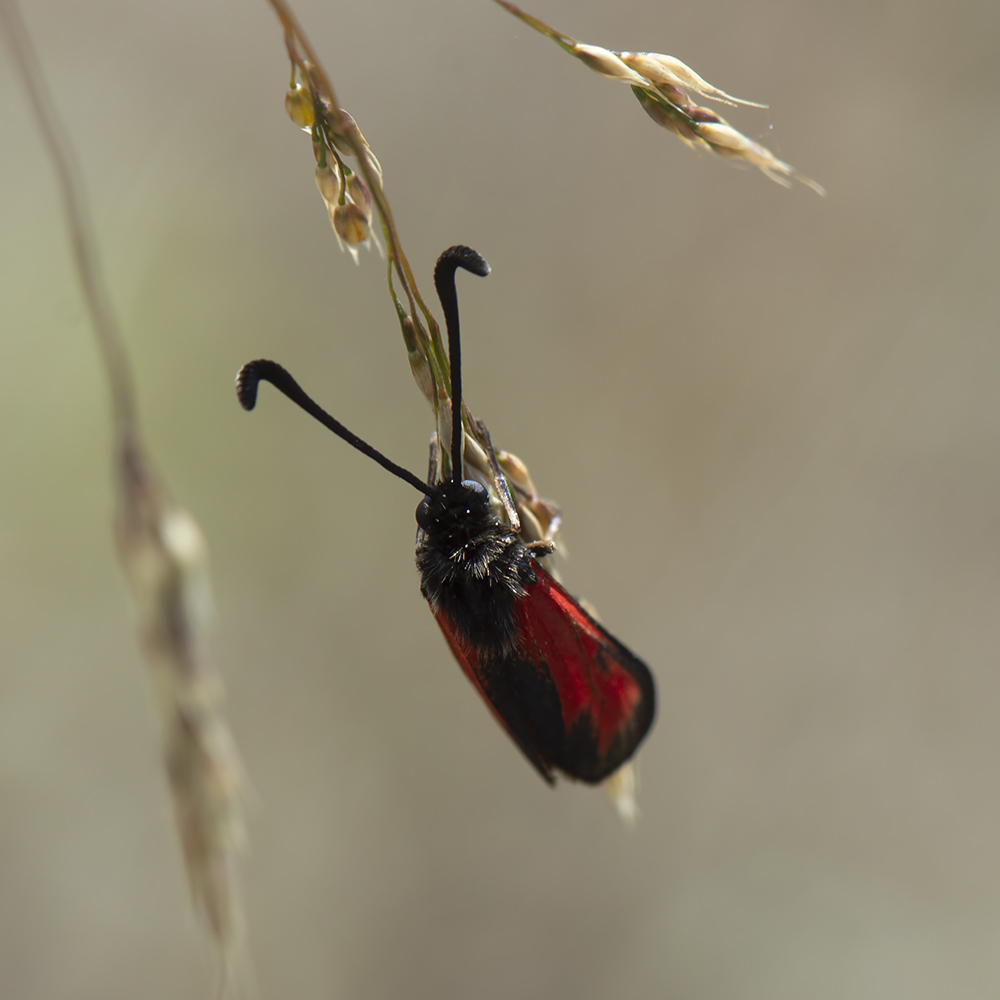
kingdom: Animalia
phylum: Arthropoda
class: Insecta
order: Lepidoptera
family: Zygaenidae
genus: Zygaena
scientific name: Zygaena punctum
